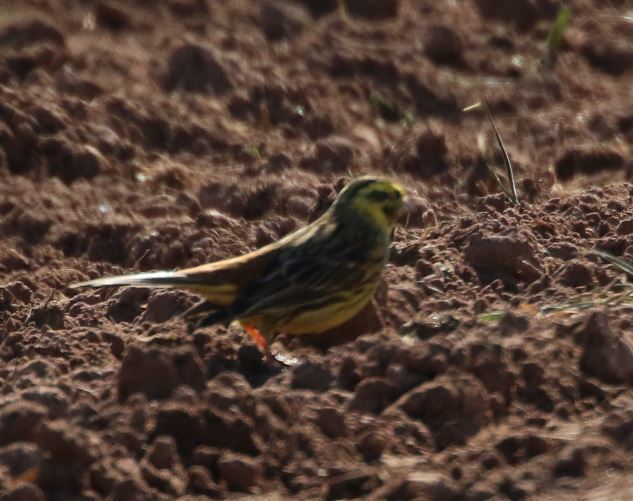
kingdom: Animalia
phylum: Chordata
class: Aves
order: Passeriformes
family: Emberizidae
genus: Emberiza
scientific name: Emberiza citrinella
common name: Yellowhammer
